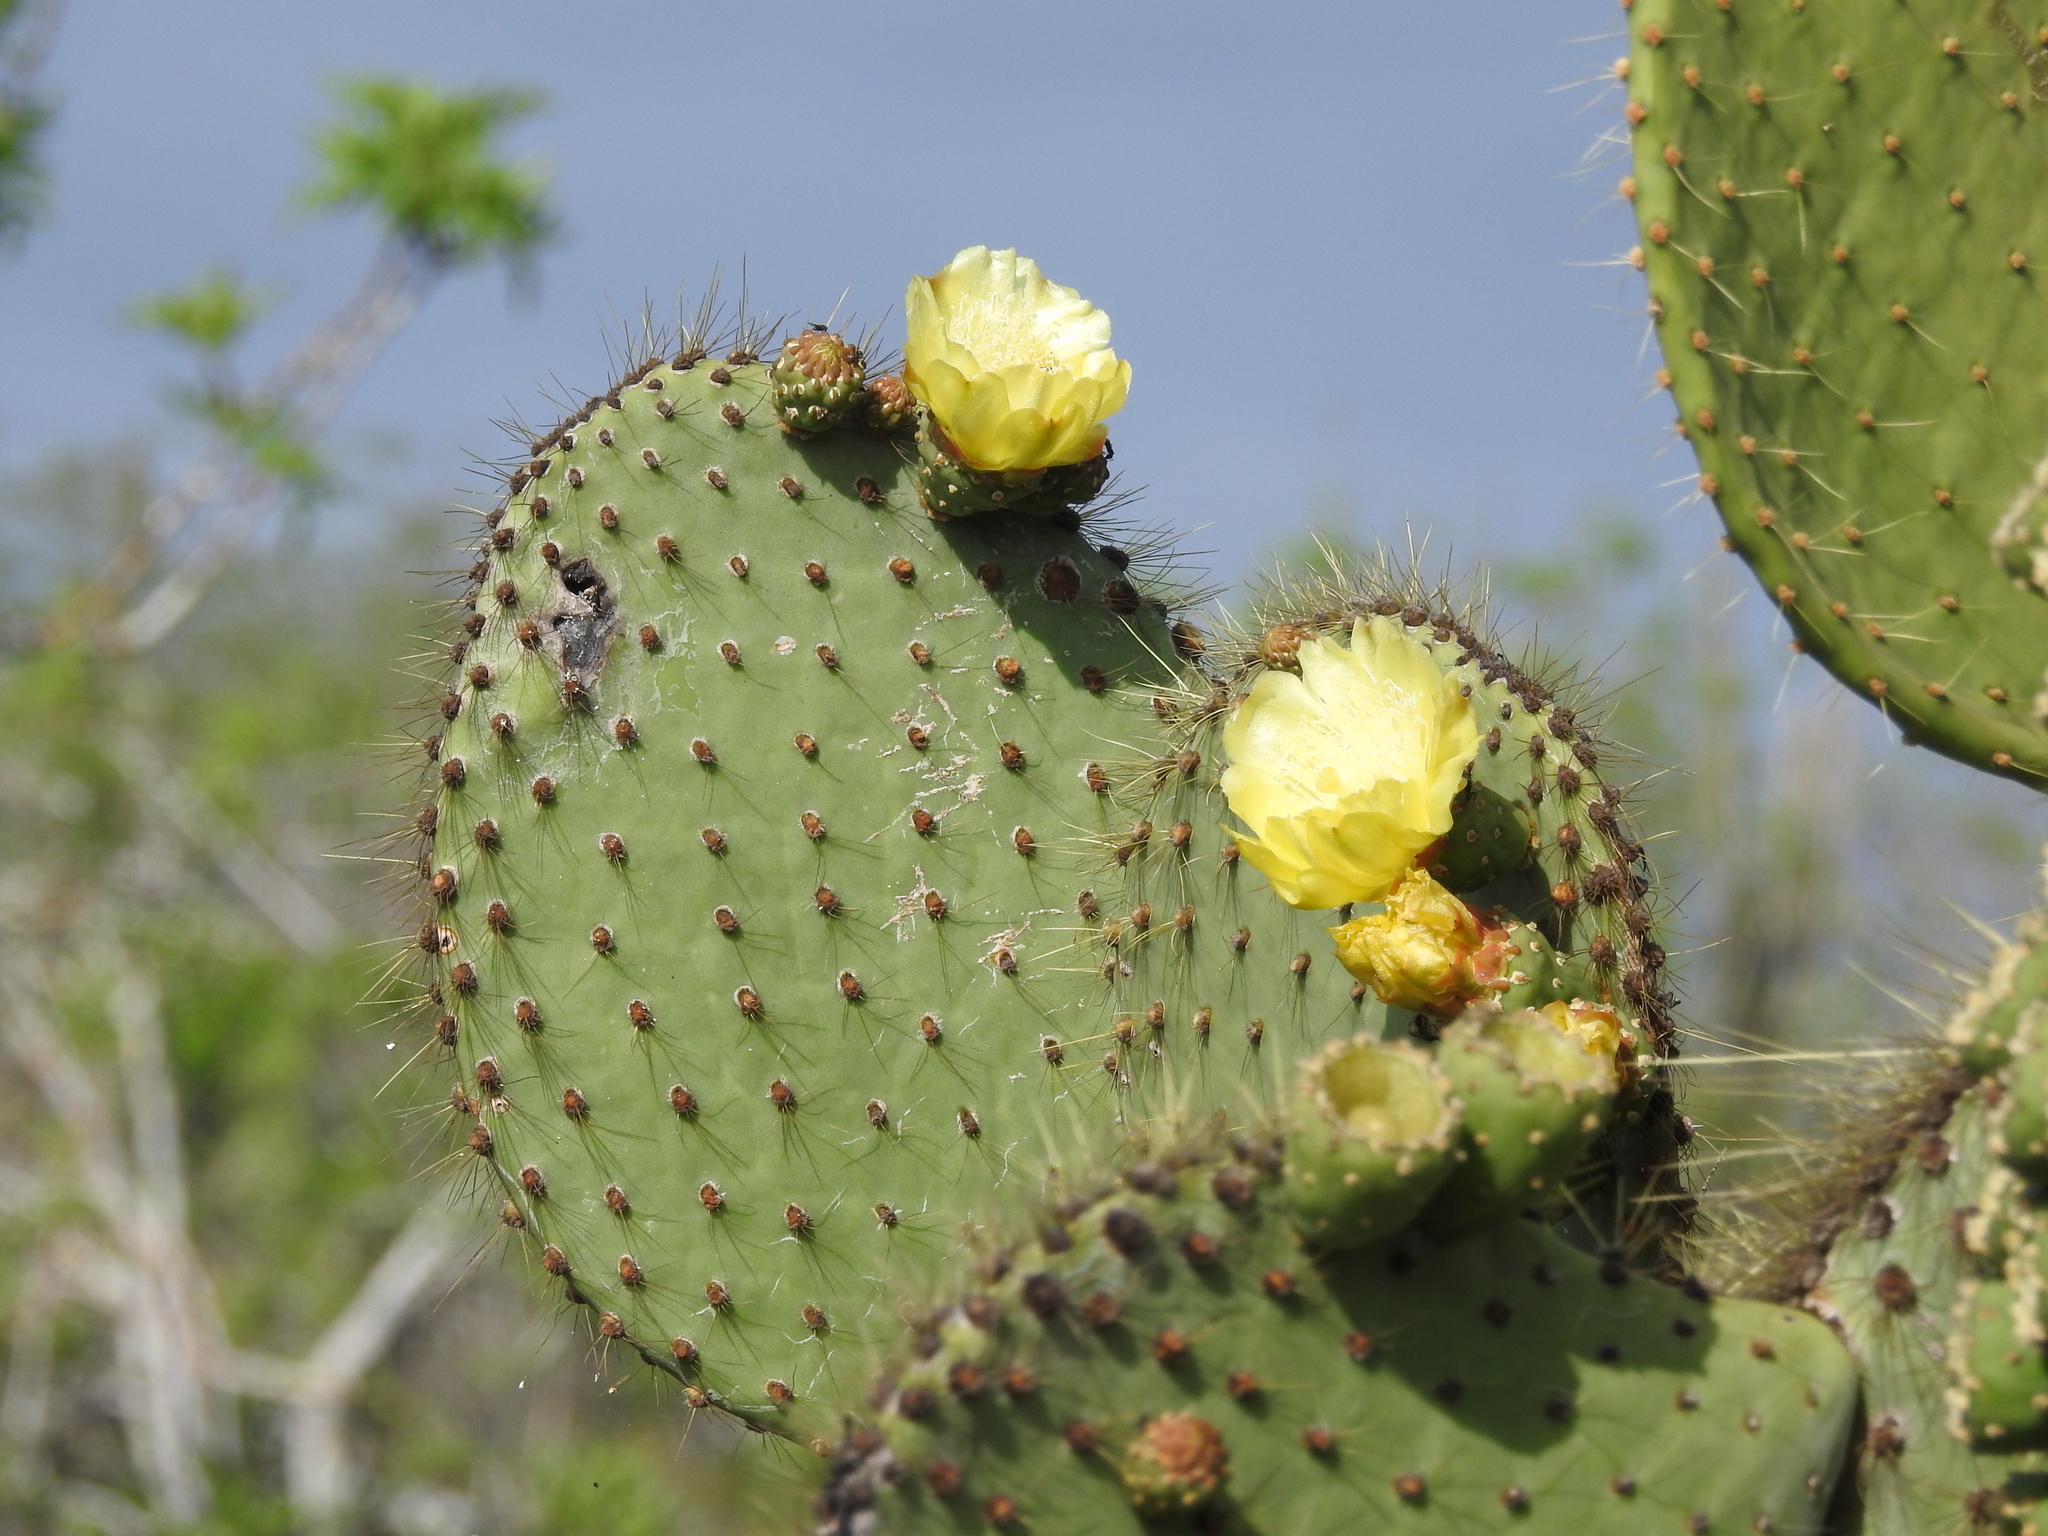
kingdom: Plantae
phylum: Tracheophyta
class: Magnoliopsida
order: Caryophyllales
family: Cactaceae
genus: Opuntia
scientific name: Opuntia galapageia
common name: Galápagos prickly pear
